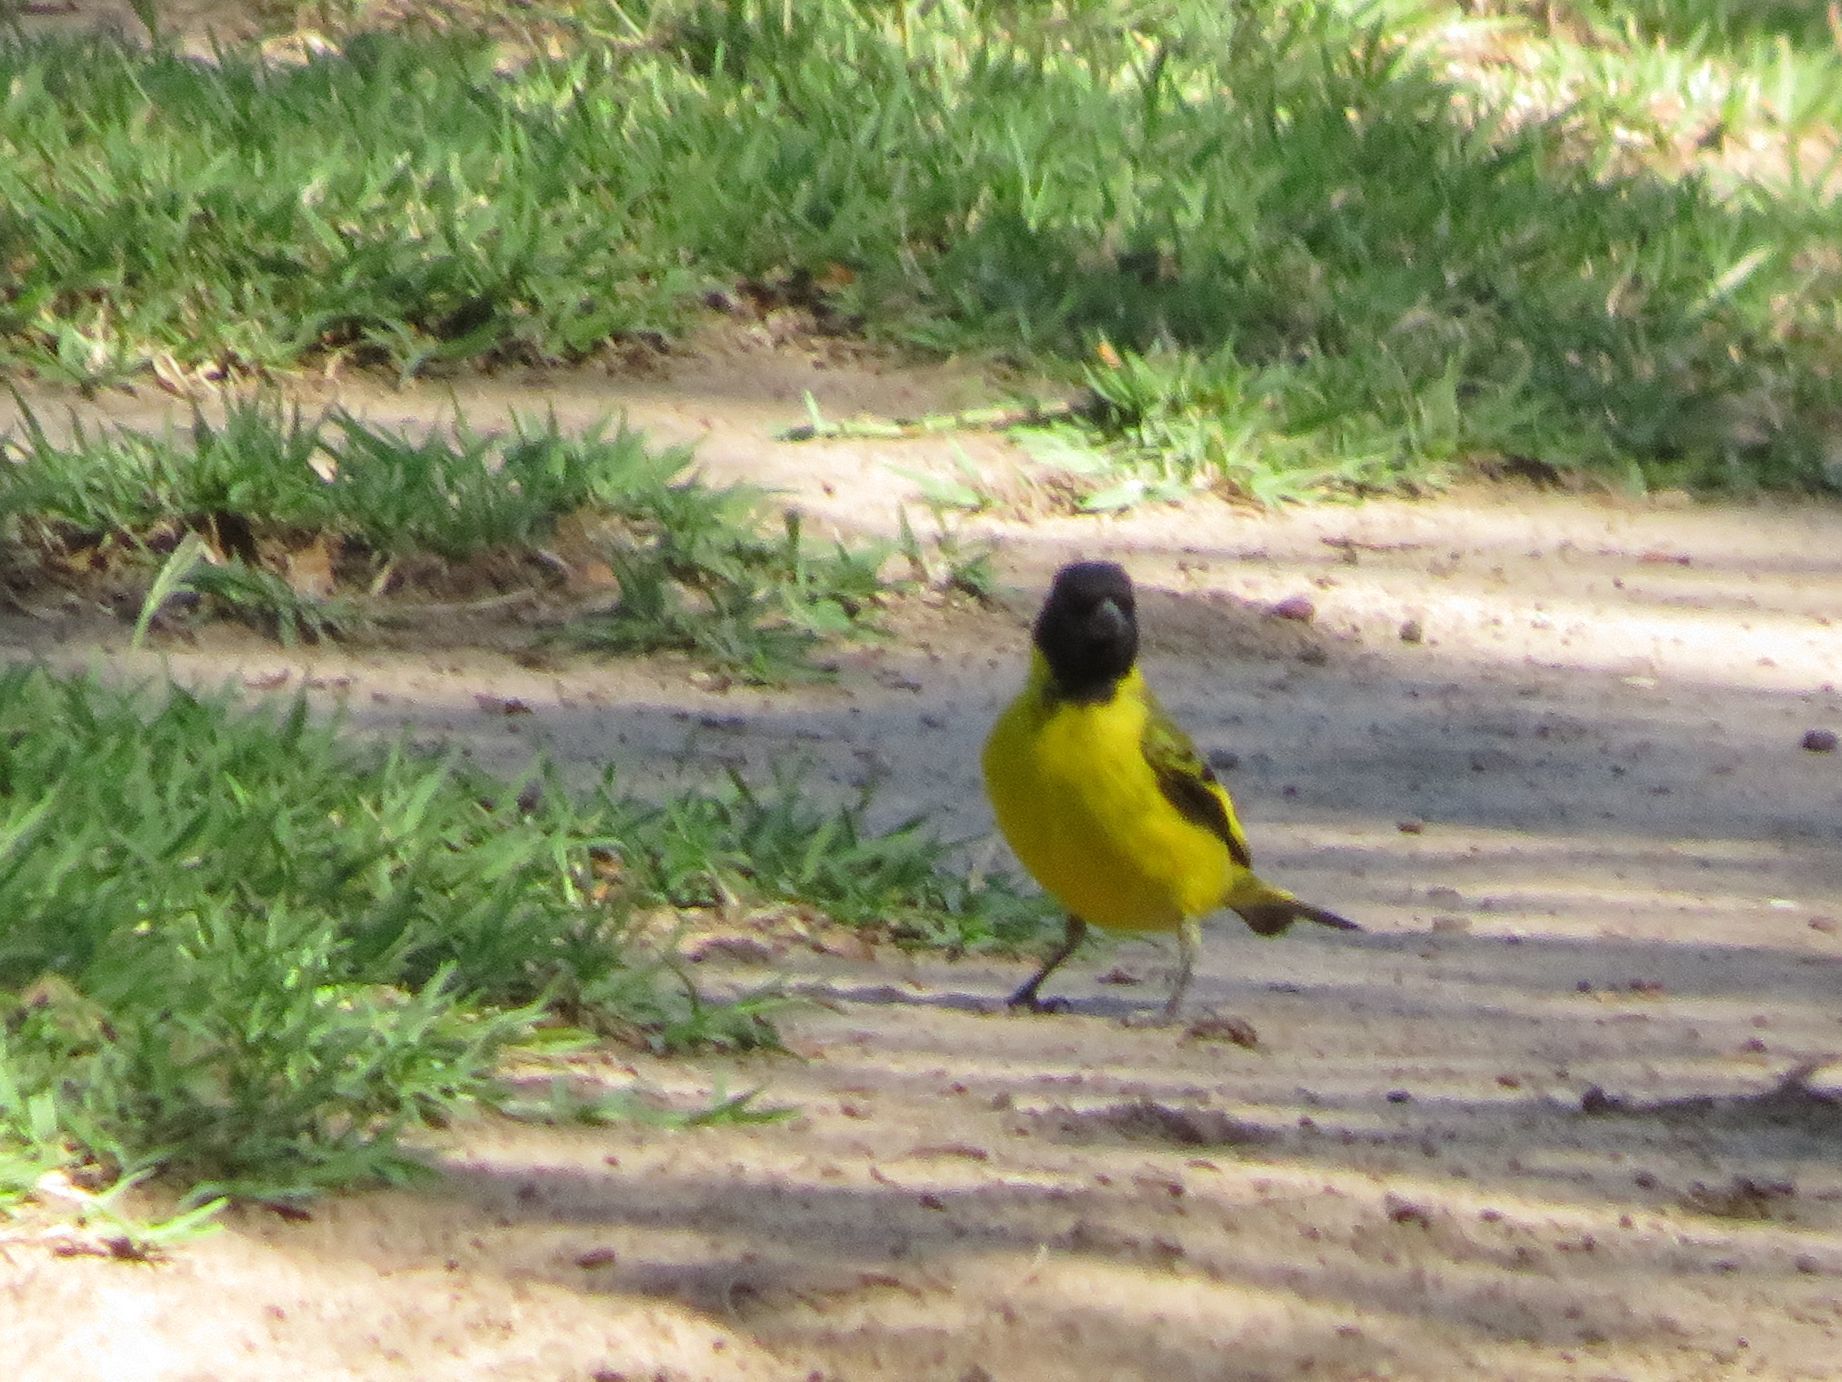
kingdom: Animalia
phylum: Chordata
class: Aves
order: Passeriformes
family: Fringillidae
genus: Spinus
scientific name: Spinus magellanicus
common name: Hooded siskin
